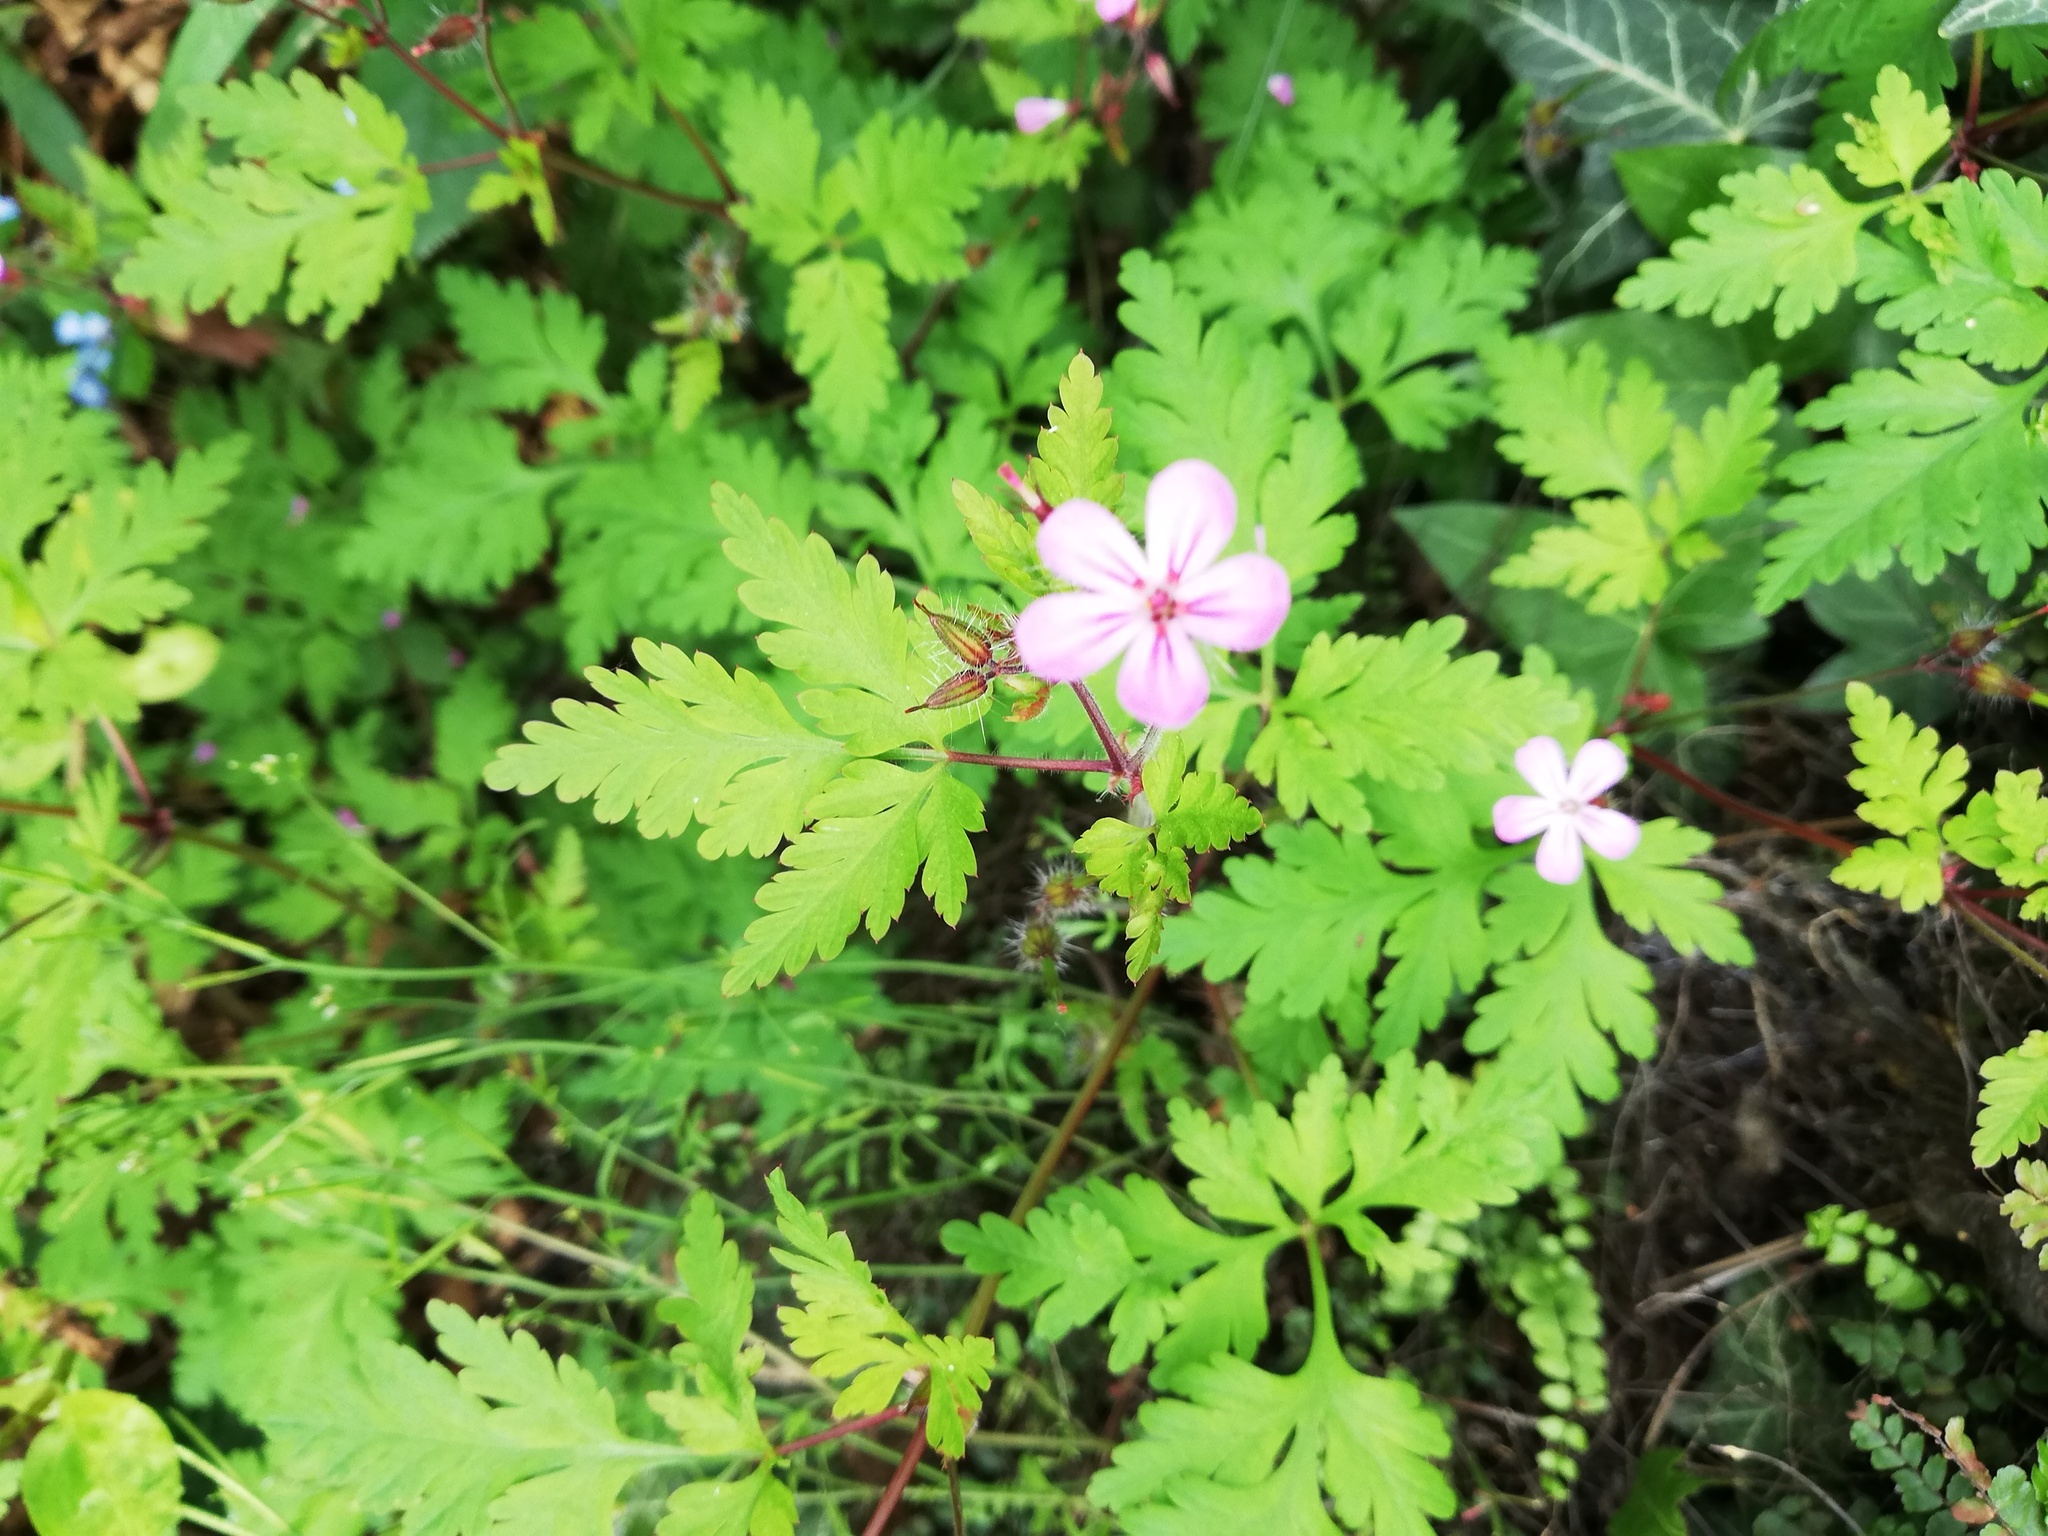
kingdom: Plantae
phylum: Tracheophyta
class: Magnoliopsida
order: Geraniales
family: Geraniaceae
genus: Geranium
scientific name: Geranium robertianum
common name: Herb-robert
